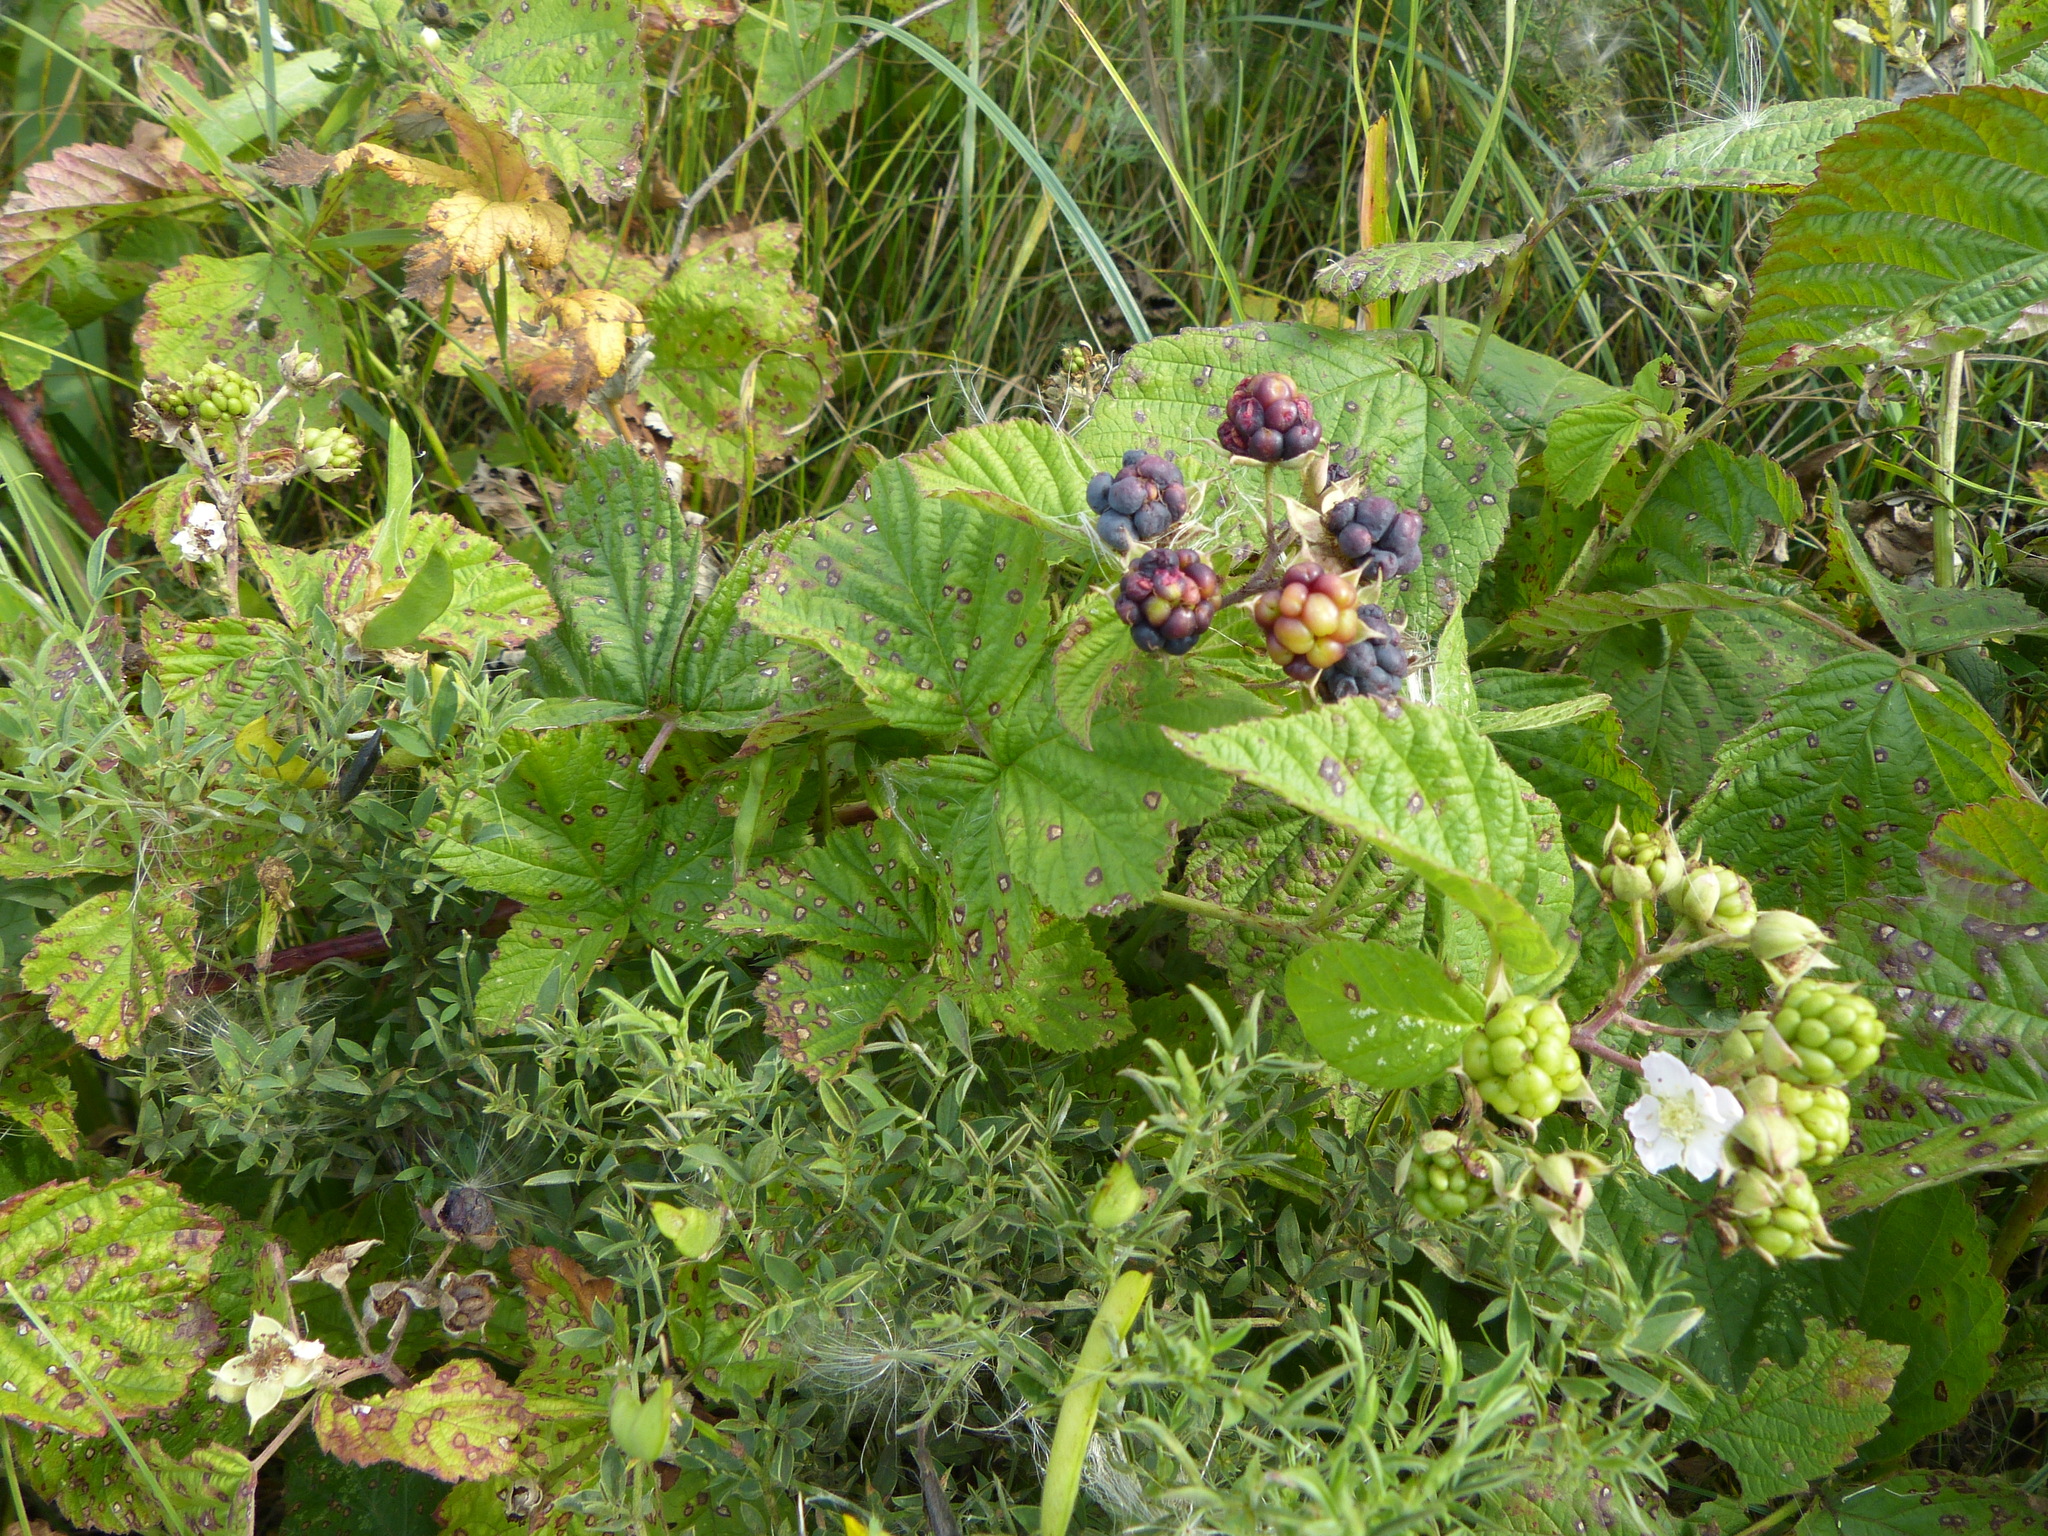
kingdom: Plantae
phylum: Tracheophyta
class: Magnoliopsida
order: Rosales
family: Rosaceae
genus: Rubus
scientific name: Rubus caesius
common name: Dewberry
